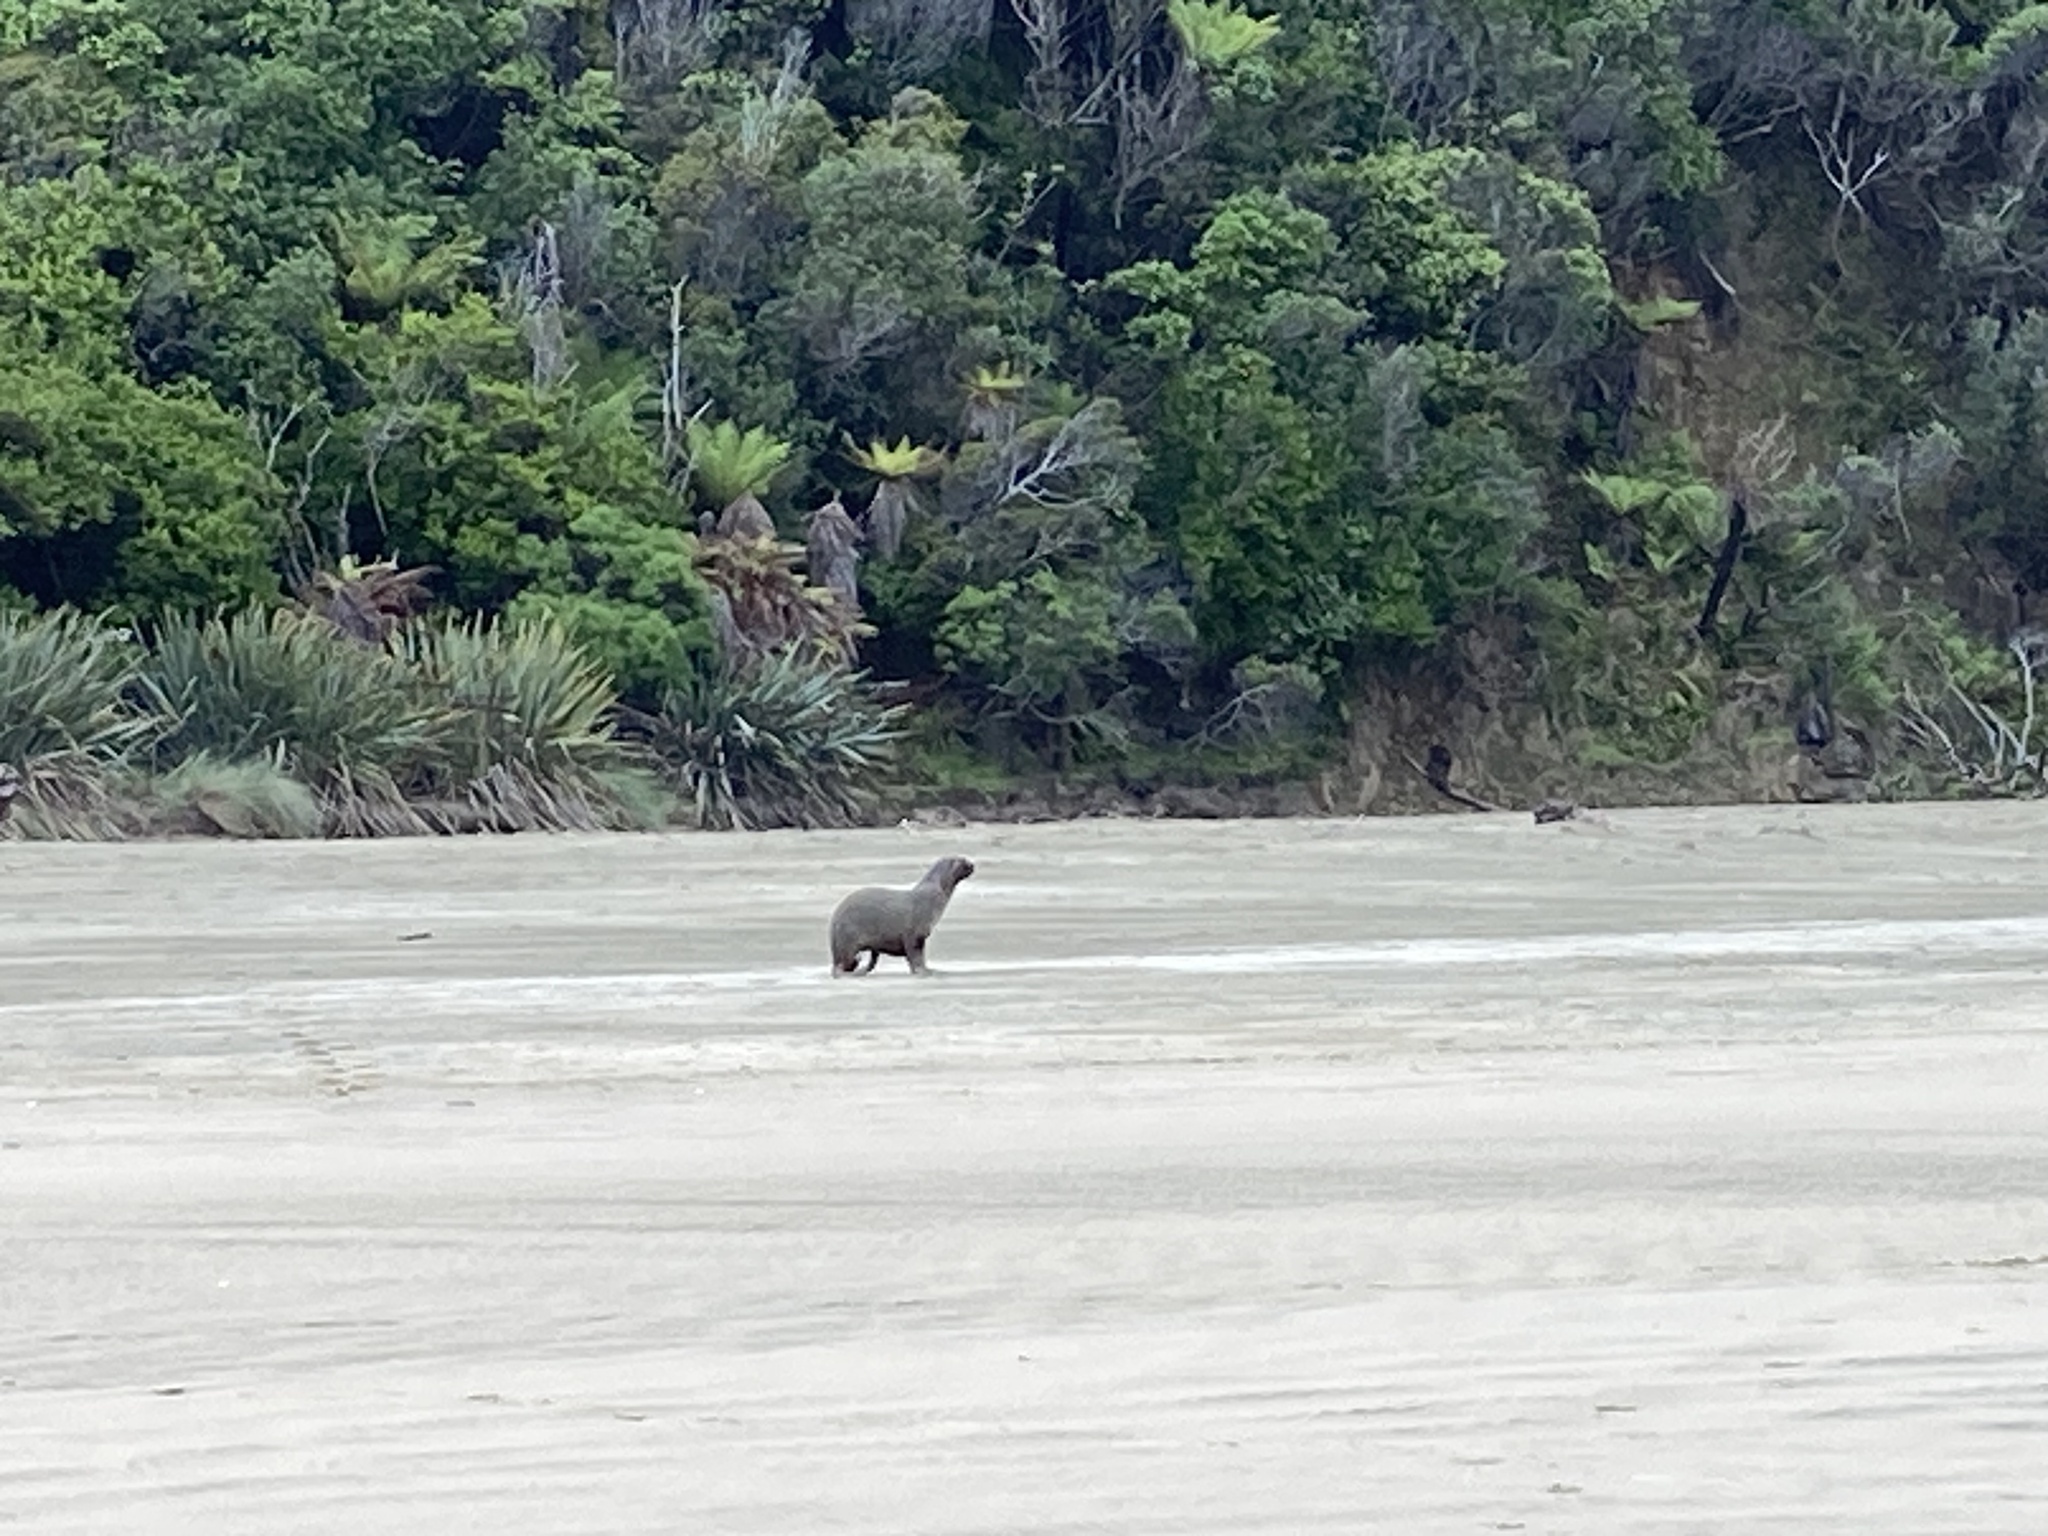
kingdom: Animalia
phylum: Chordata
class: Mammalia
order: Carnivora
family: Otariidae
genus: Phocarctos
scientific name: Phocarctos hookeri
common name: New zealand sea lion
